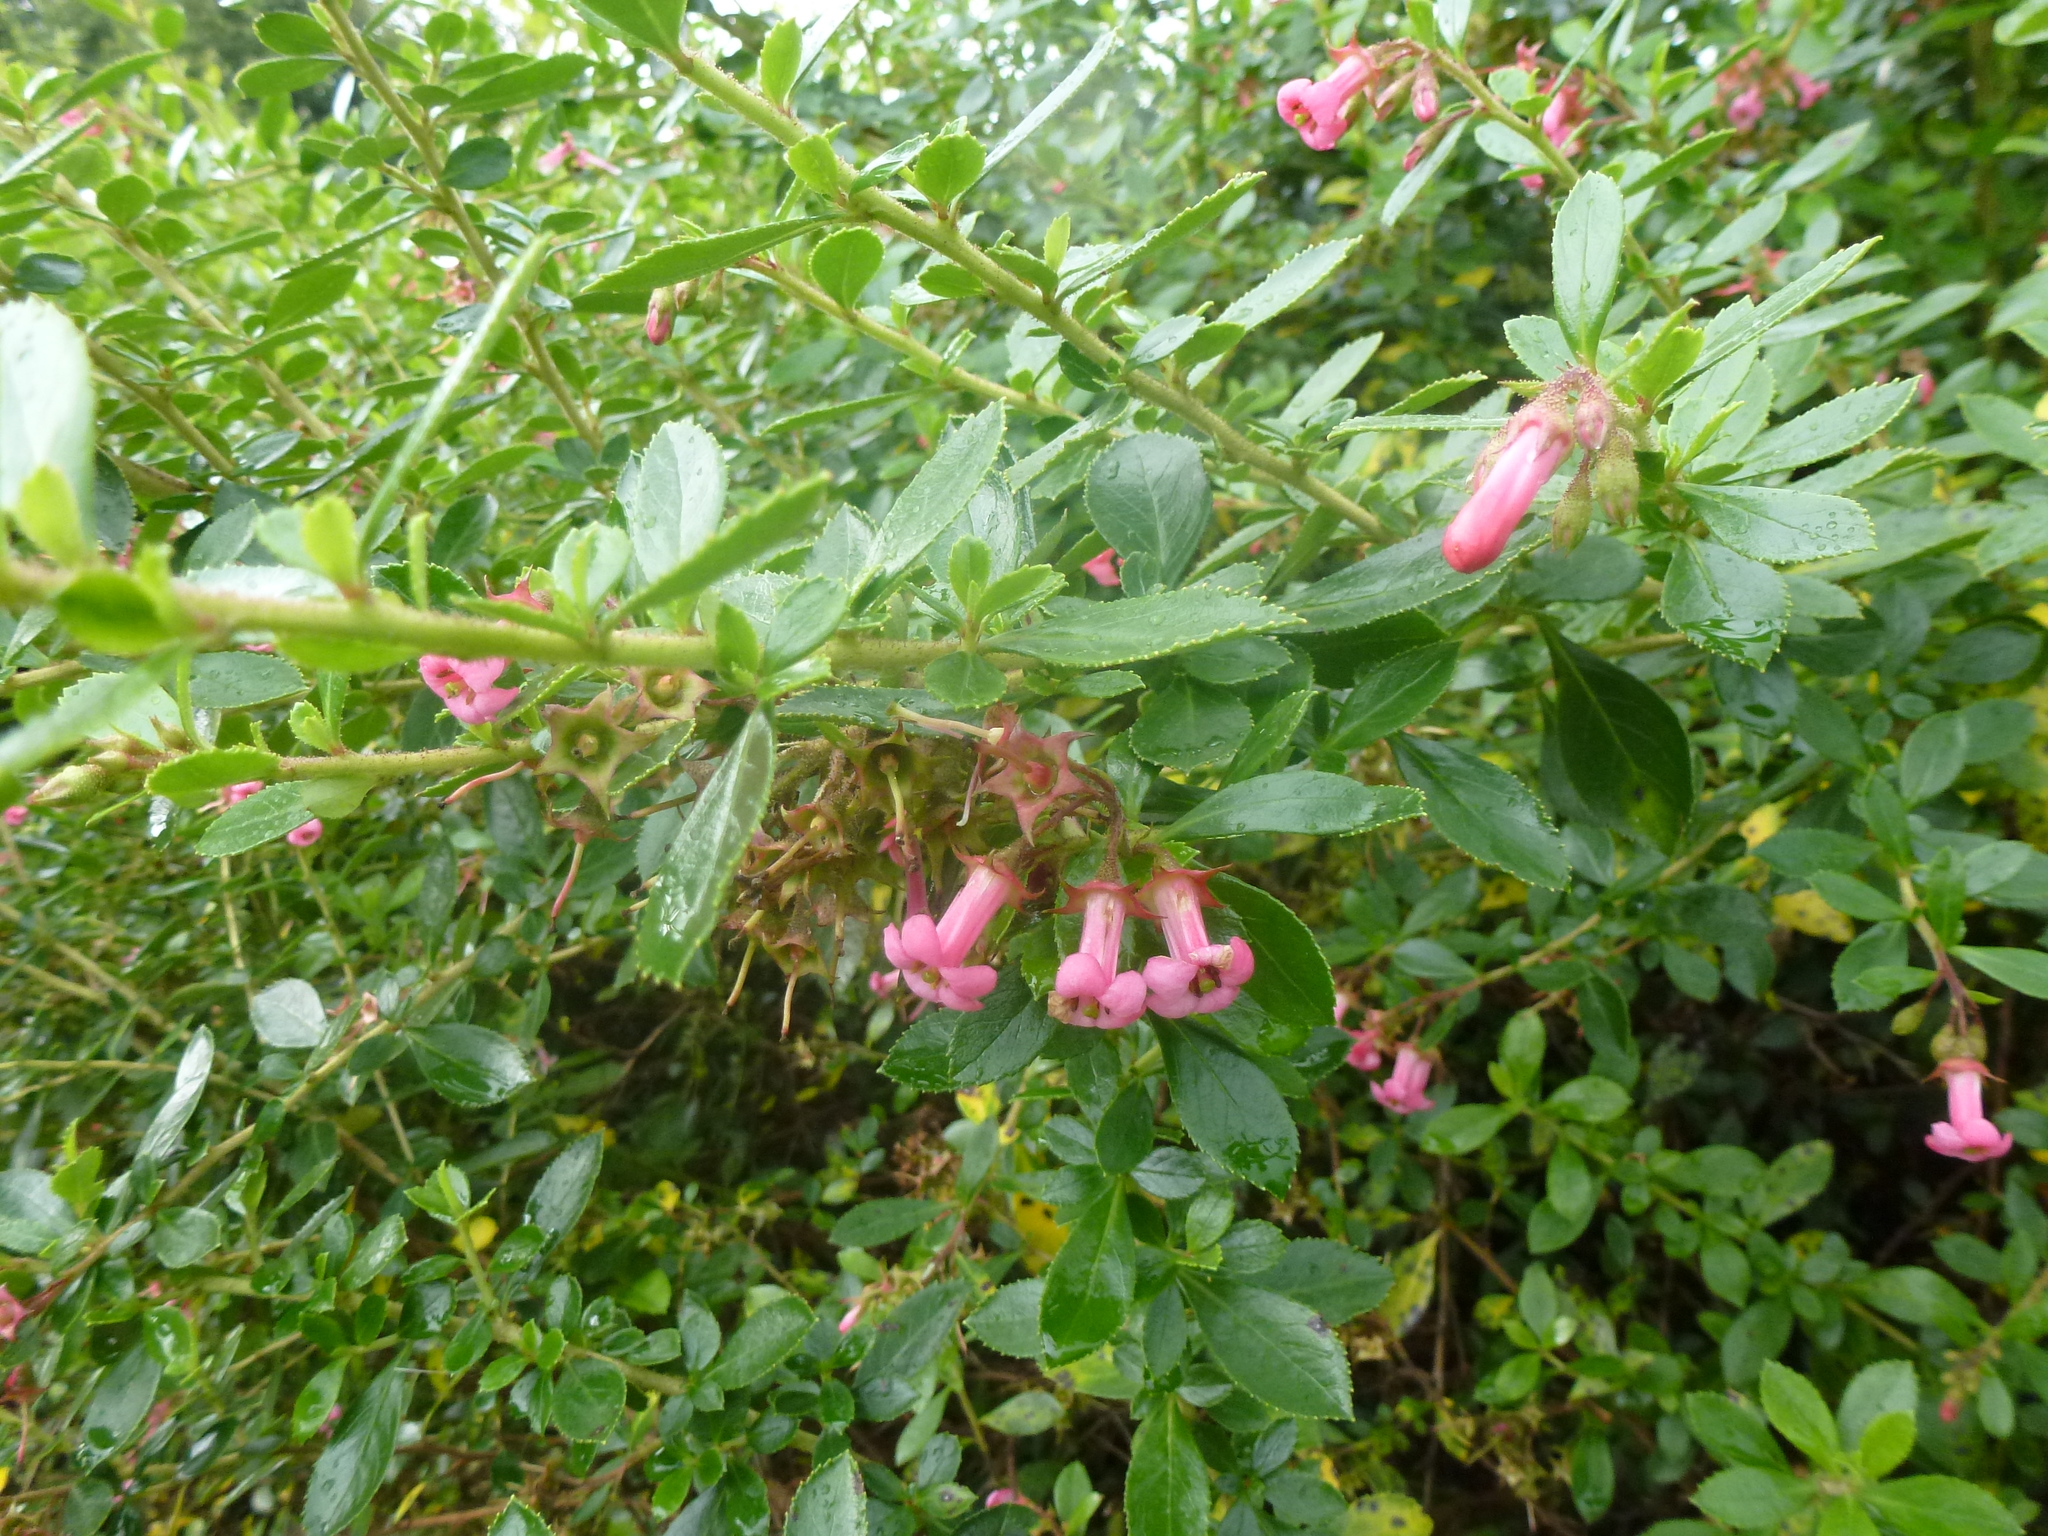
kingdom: Plantae
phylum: Tracheophyta
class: Magnoliopsida
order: Escalloniales
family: Escalloniaceae
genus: Escallonia
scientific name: Escallonia rubra
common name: Redclaws
